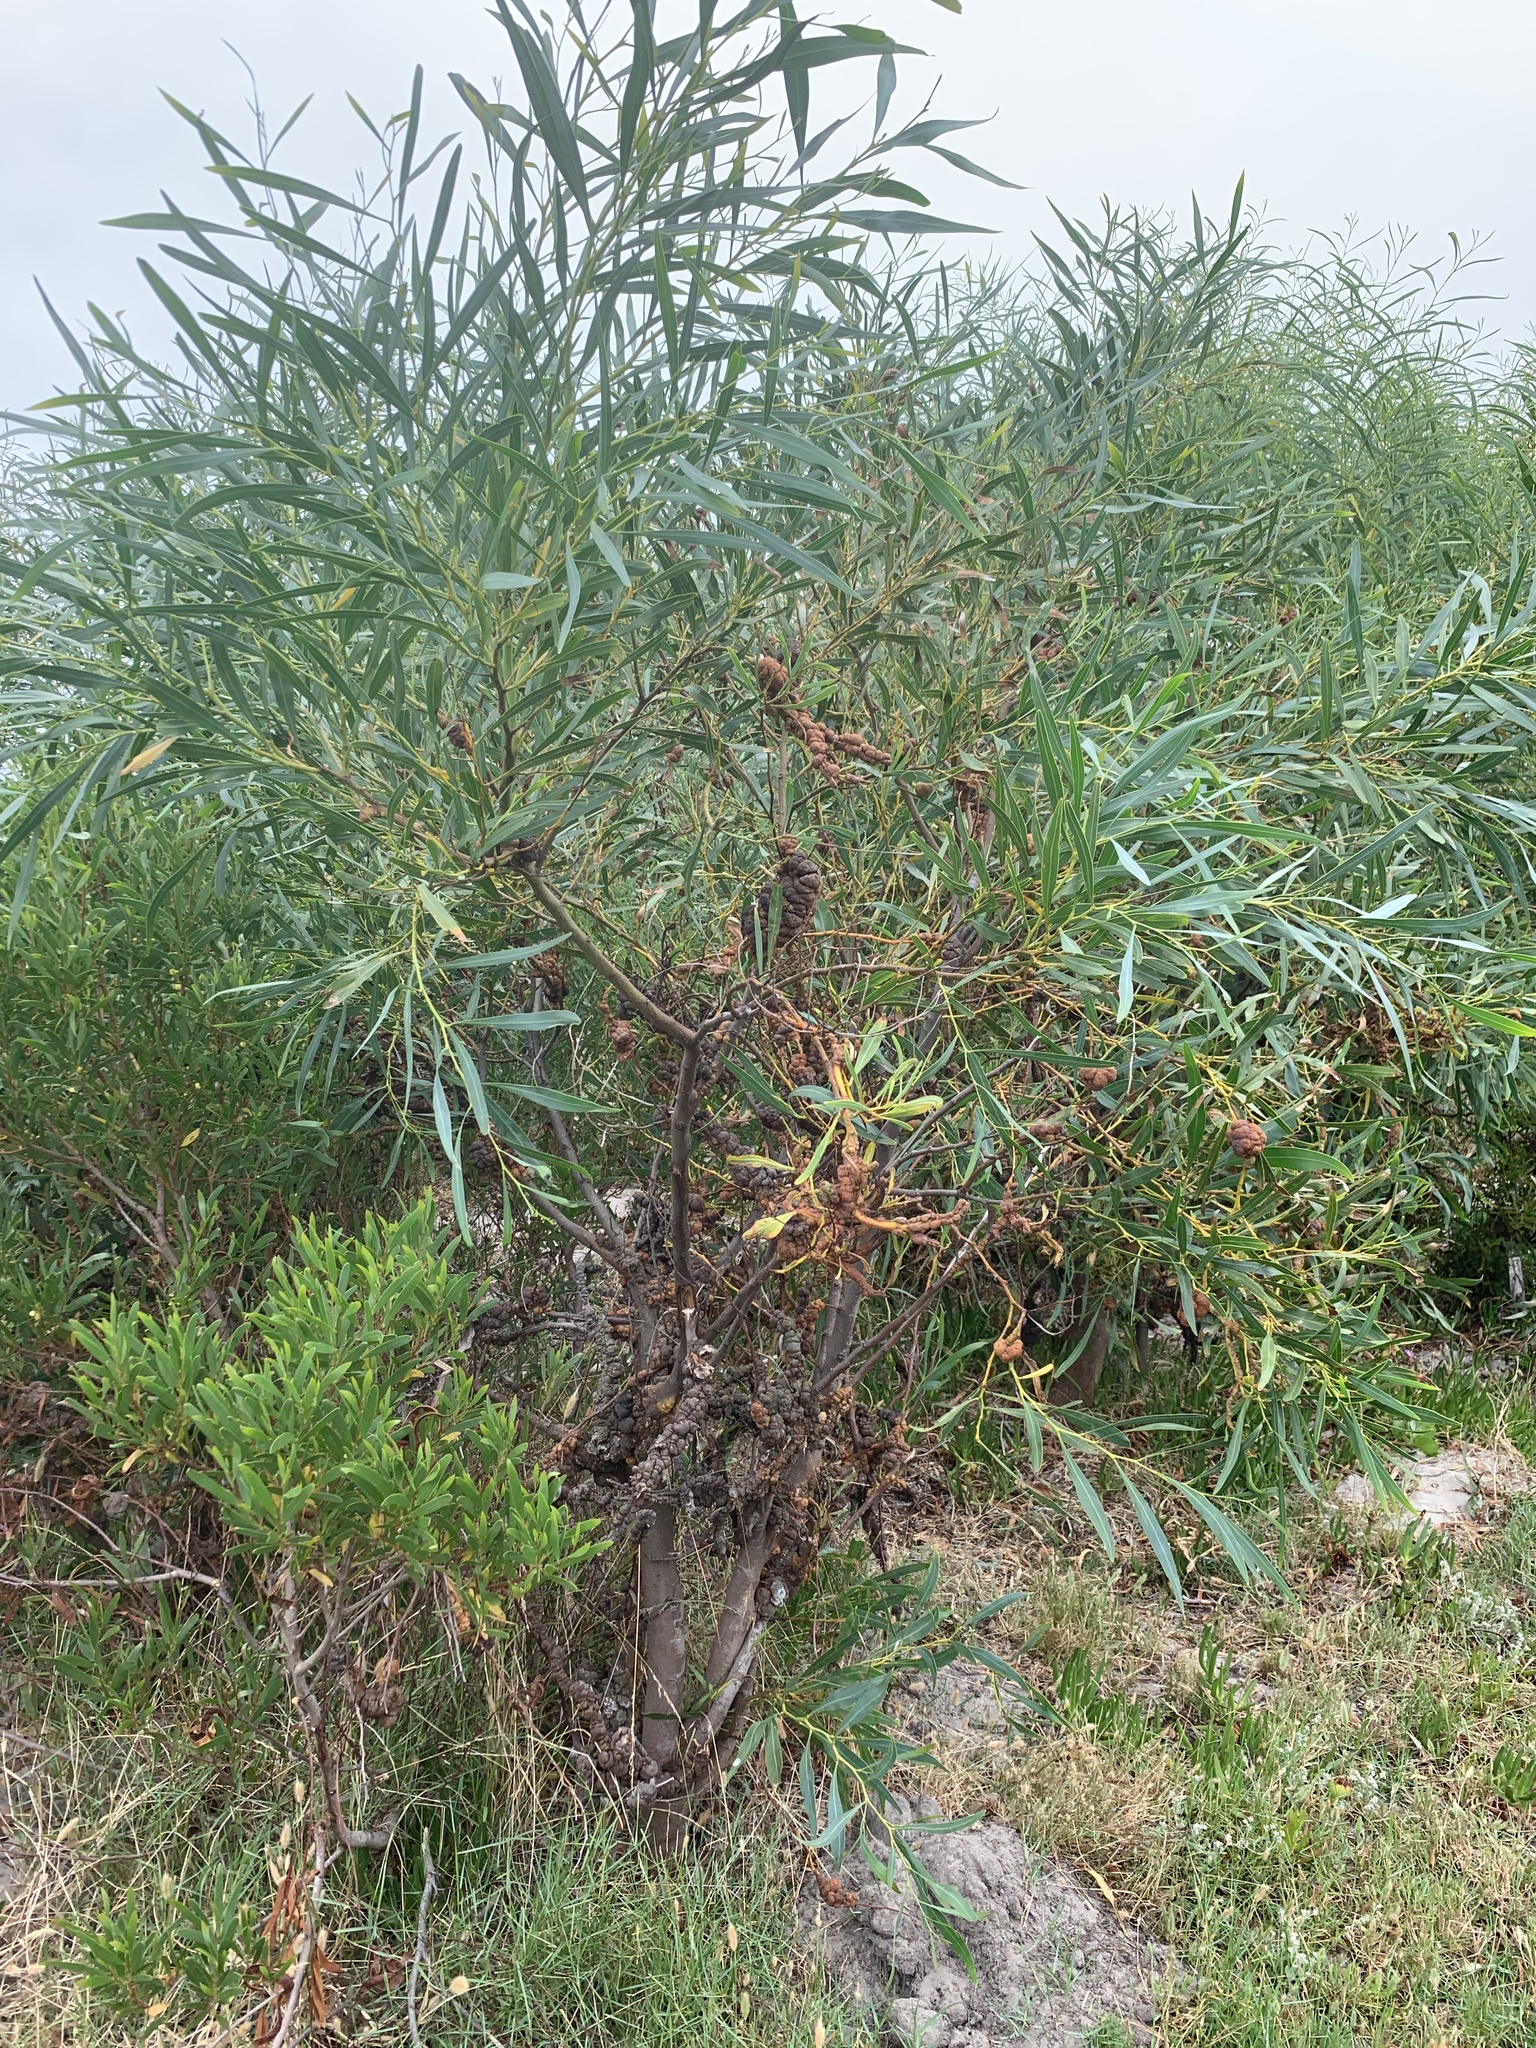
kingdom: Plantae
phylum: Tracheophyta
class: Magnoliopsida
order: Fabales
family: Fabaceae
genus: Acacia
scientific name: Acacia saligna
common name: Orange wattle
